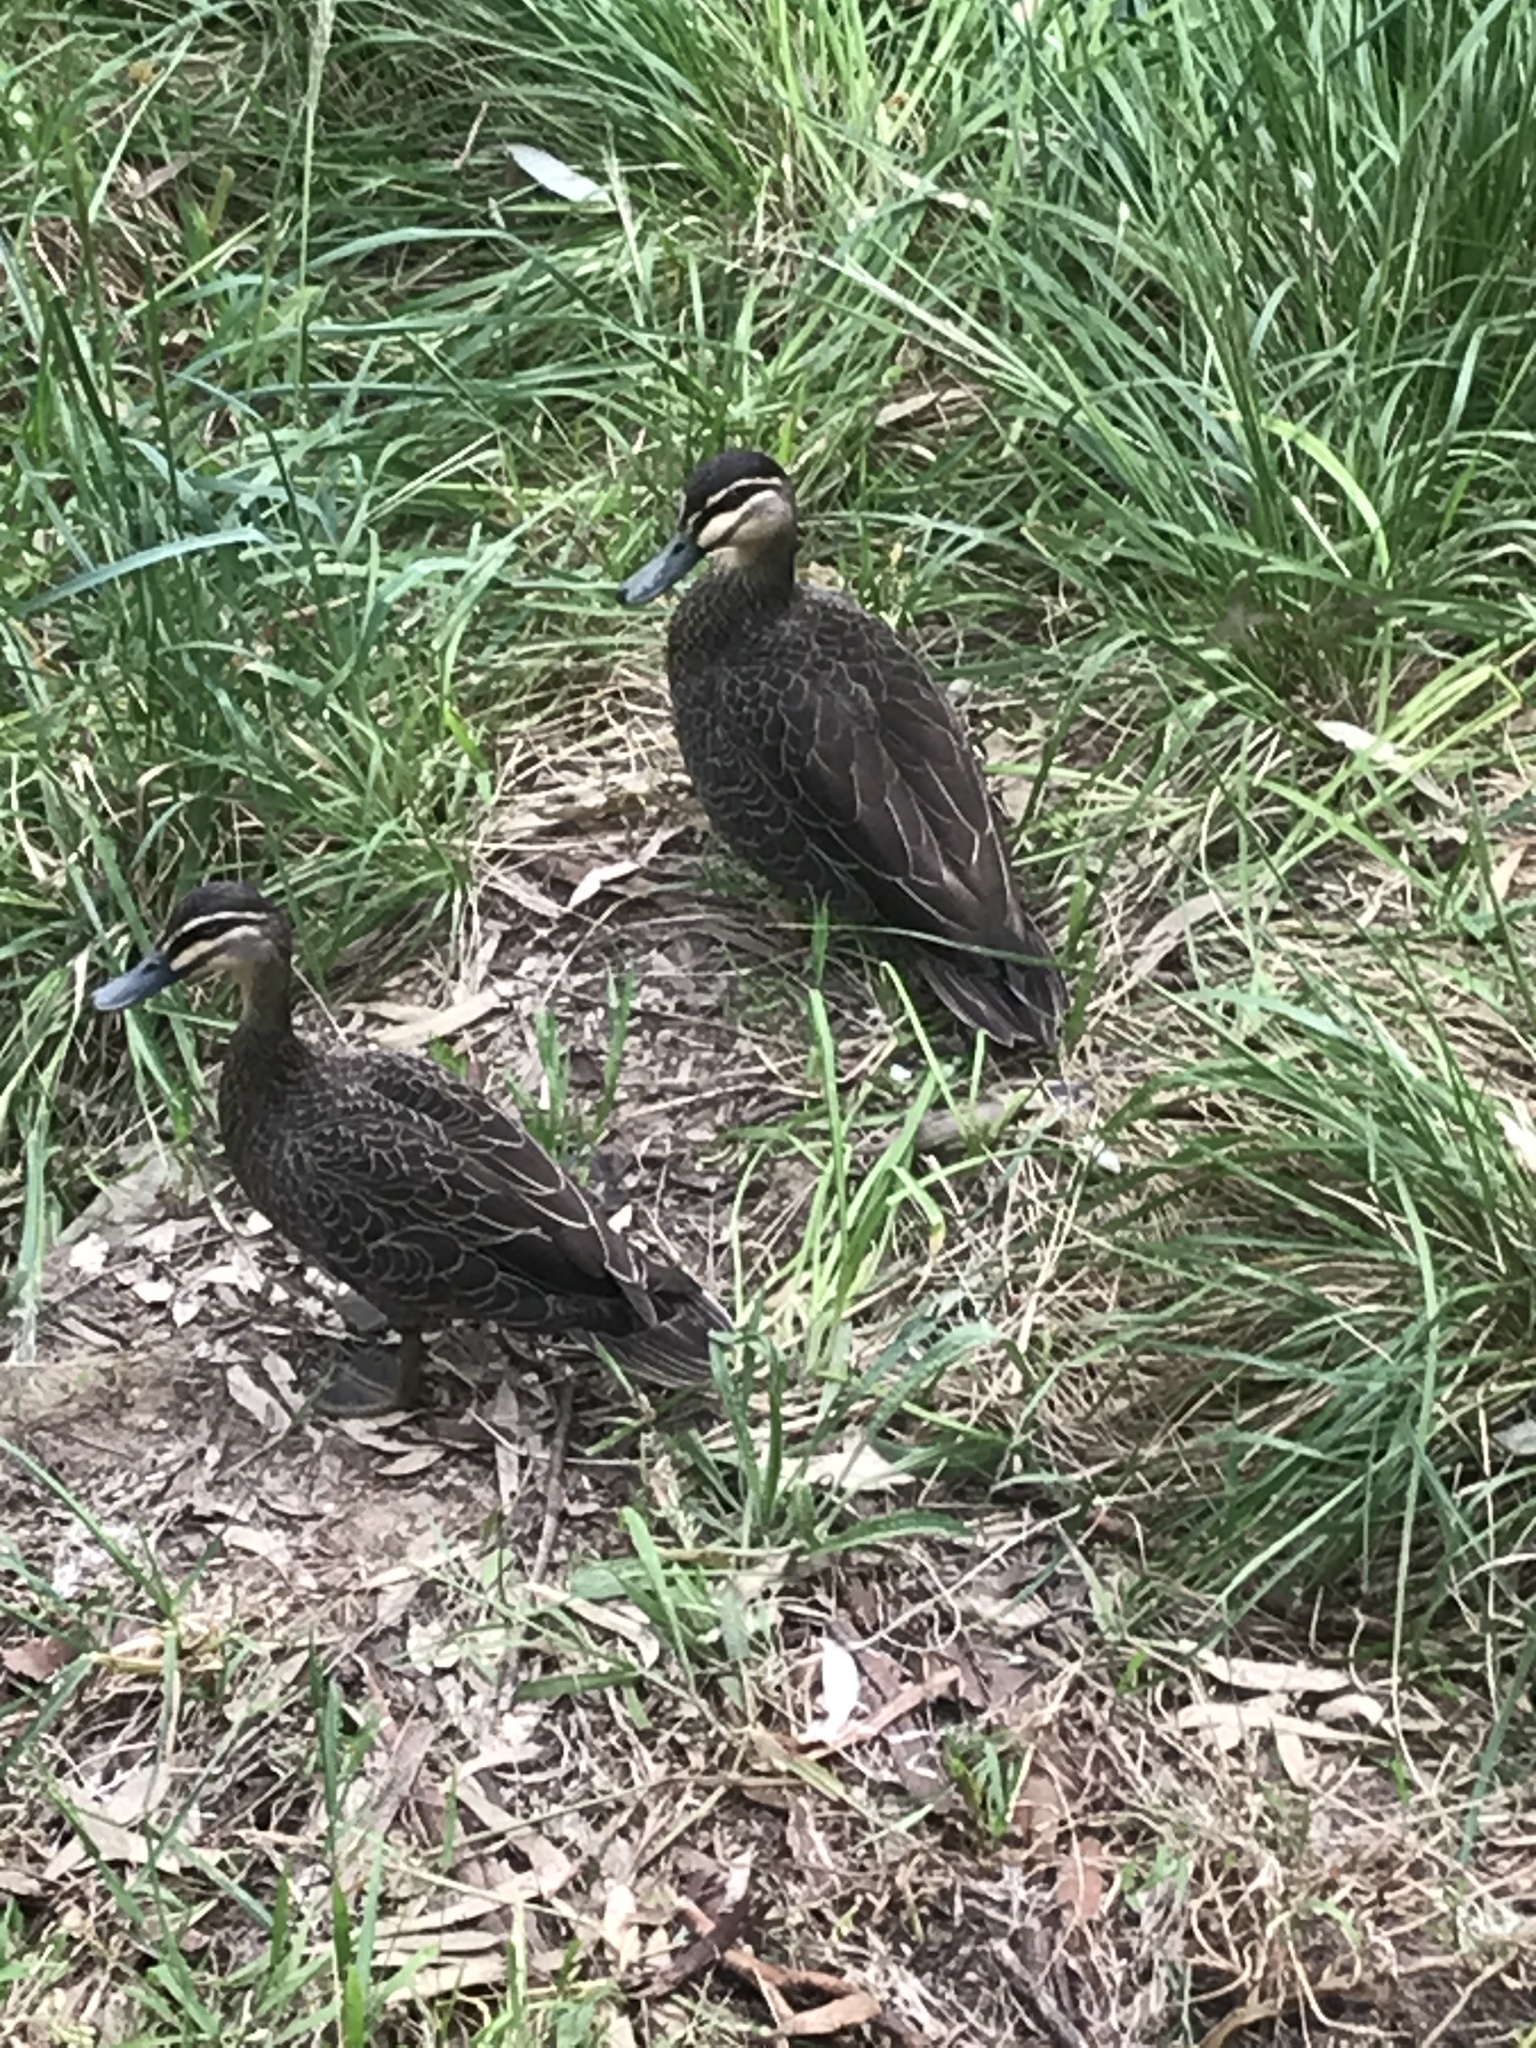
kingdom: Animalia
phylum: Chordata
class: Aves
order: Anseriformes
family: Anatidae
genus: Anas
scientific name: Anas superciliosa
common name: Pacific black duck
